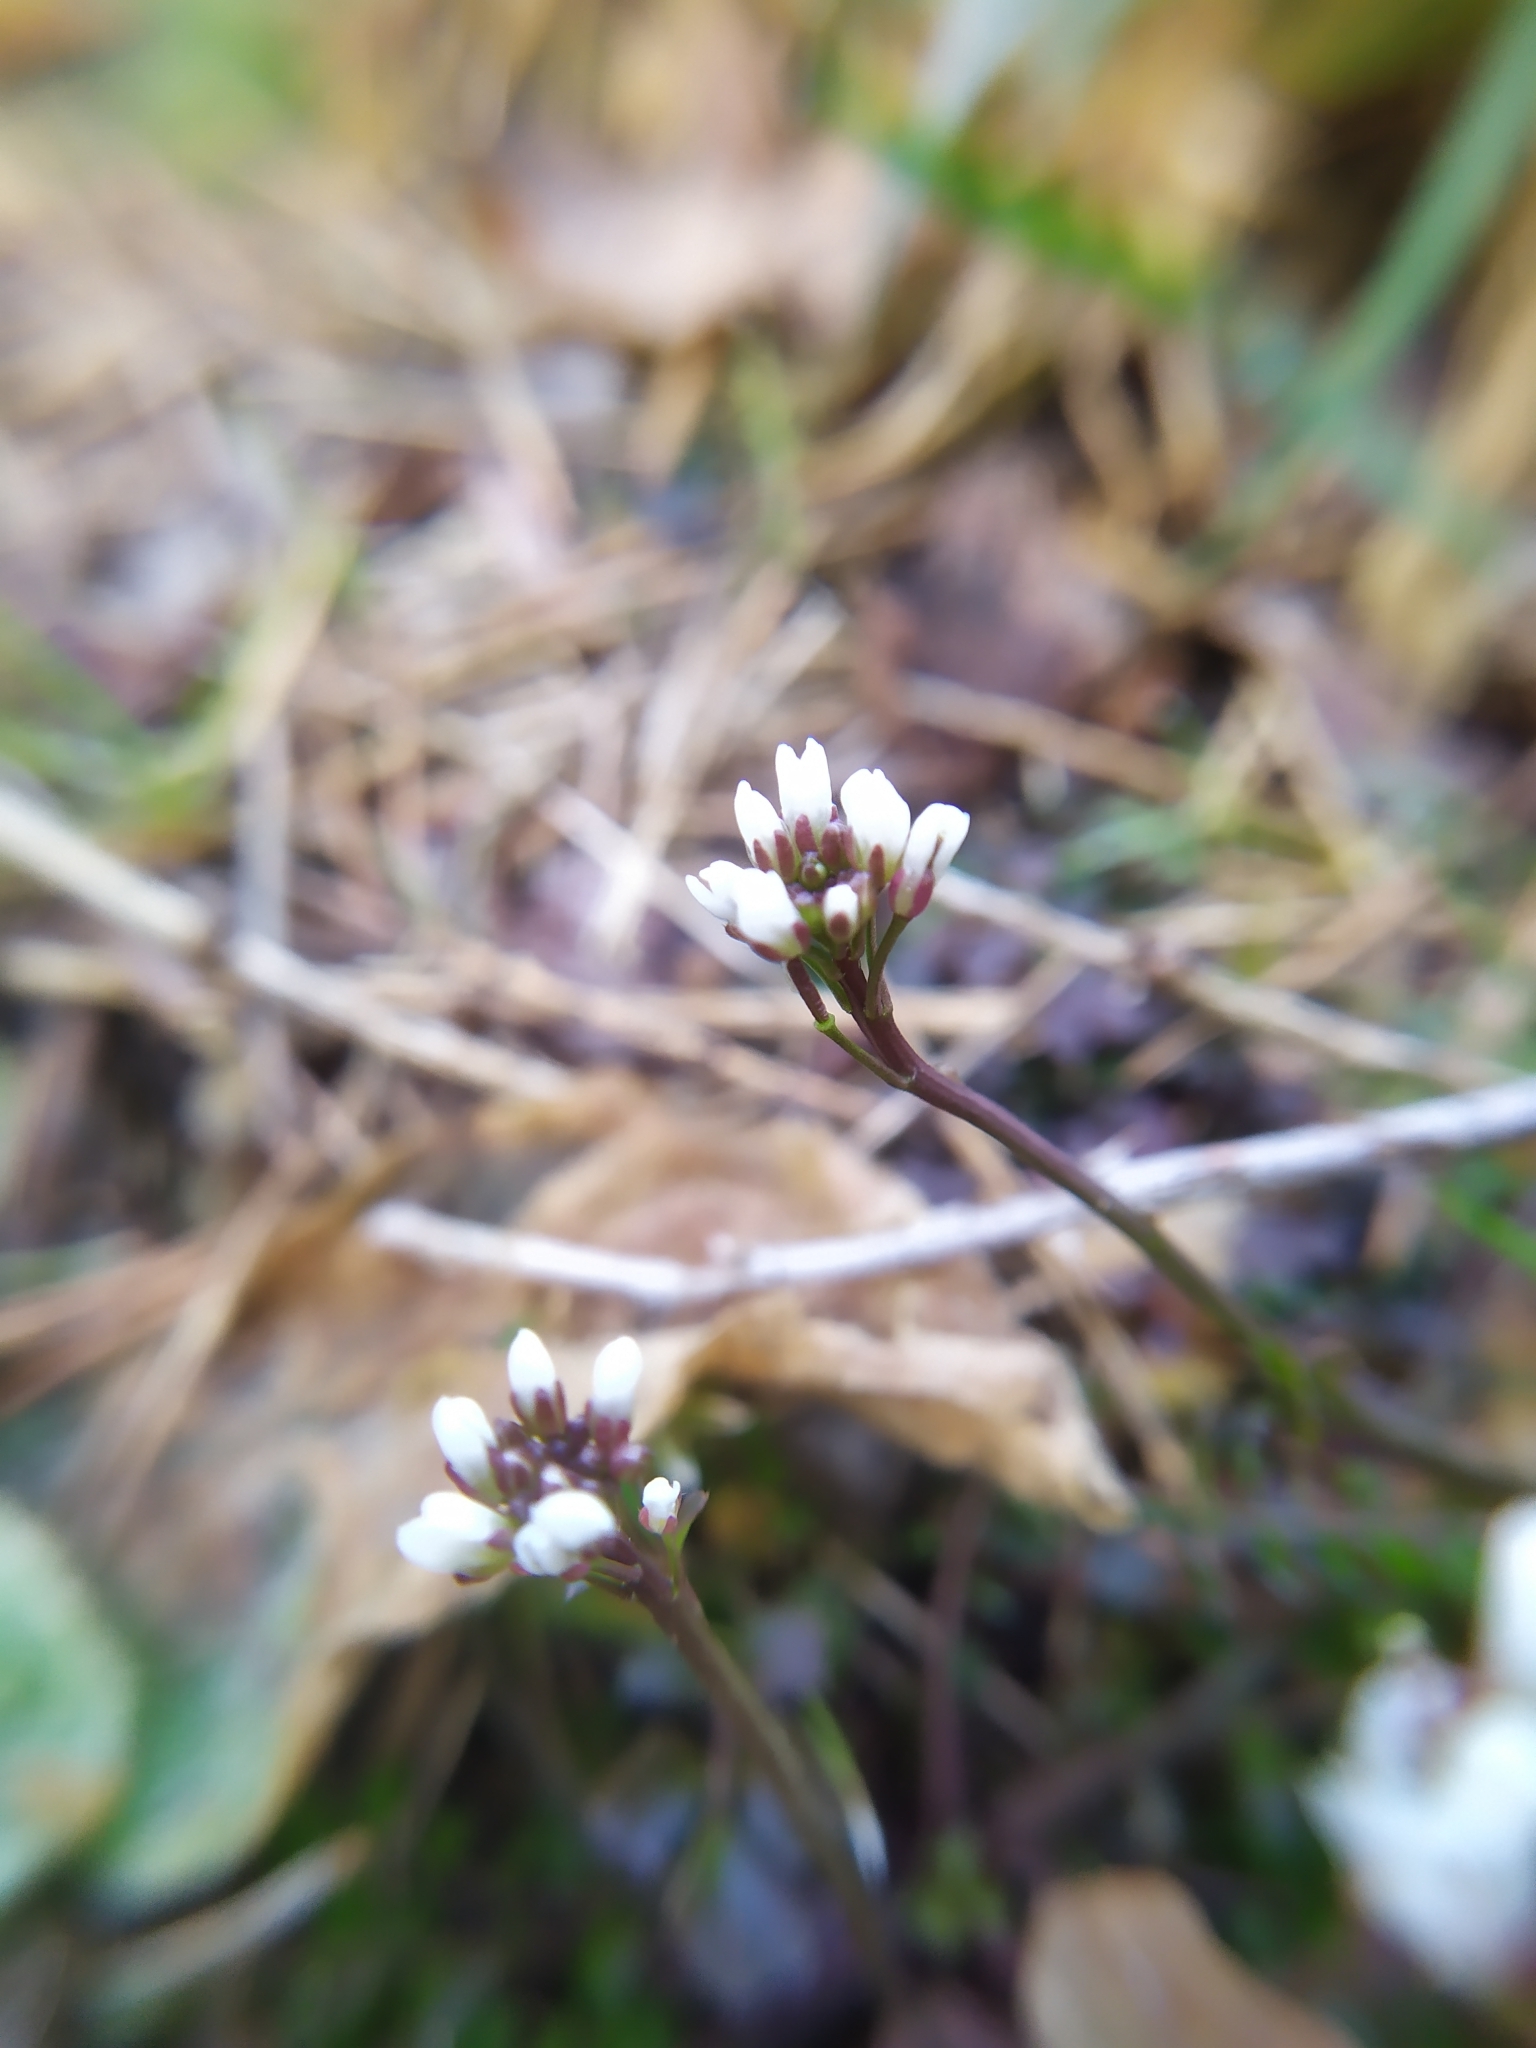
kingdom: Plantae
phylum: Tracheophyta
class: Magnoliopsida
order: Brassicales
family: Brassicaceae
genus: Cardamine
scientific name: Cardamine hirsuta
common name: Hairy bittercress
